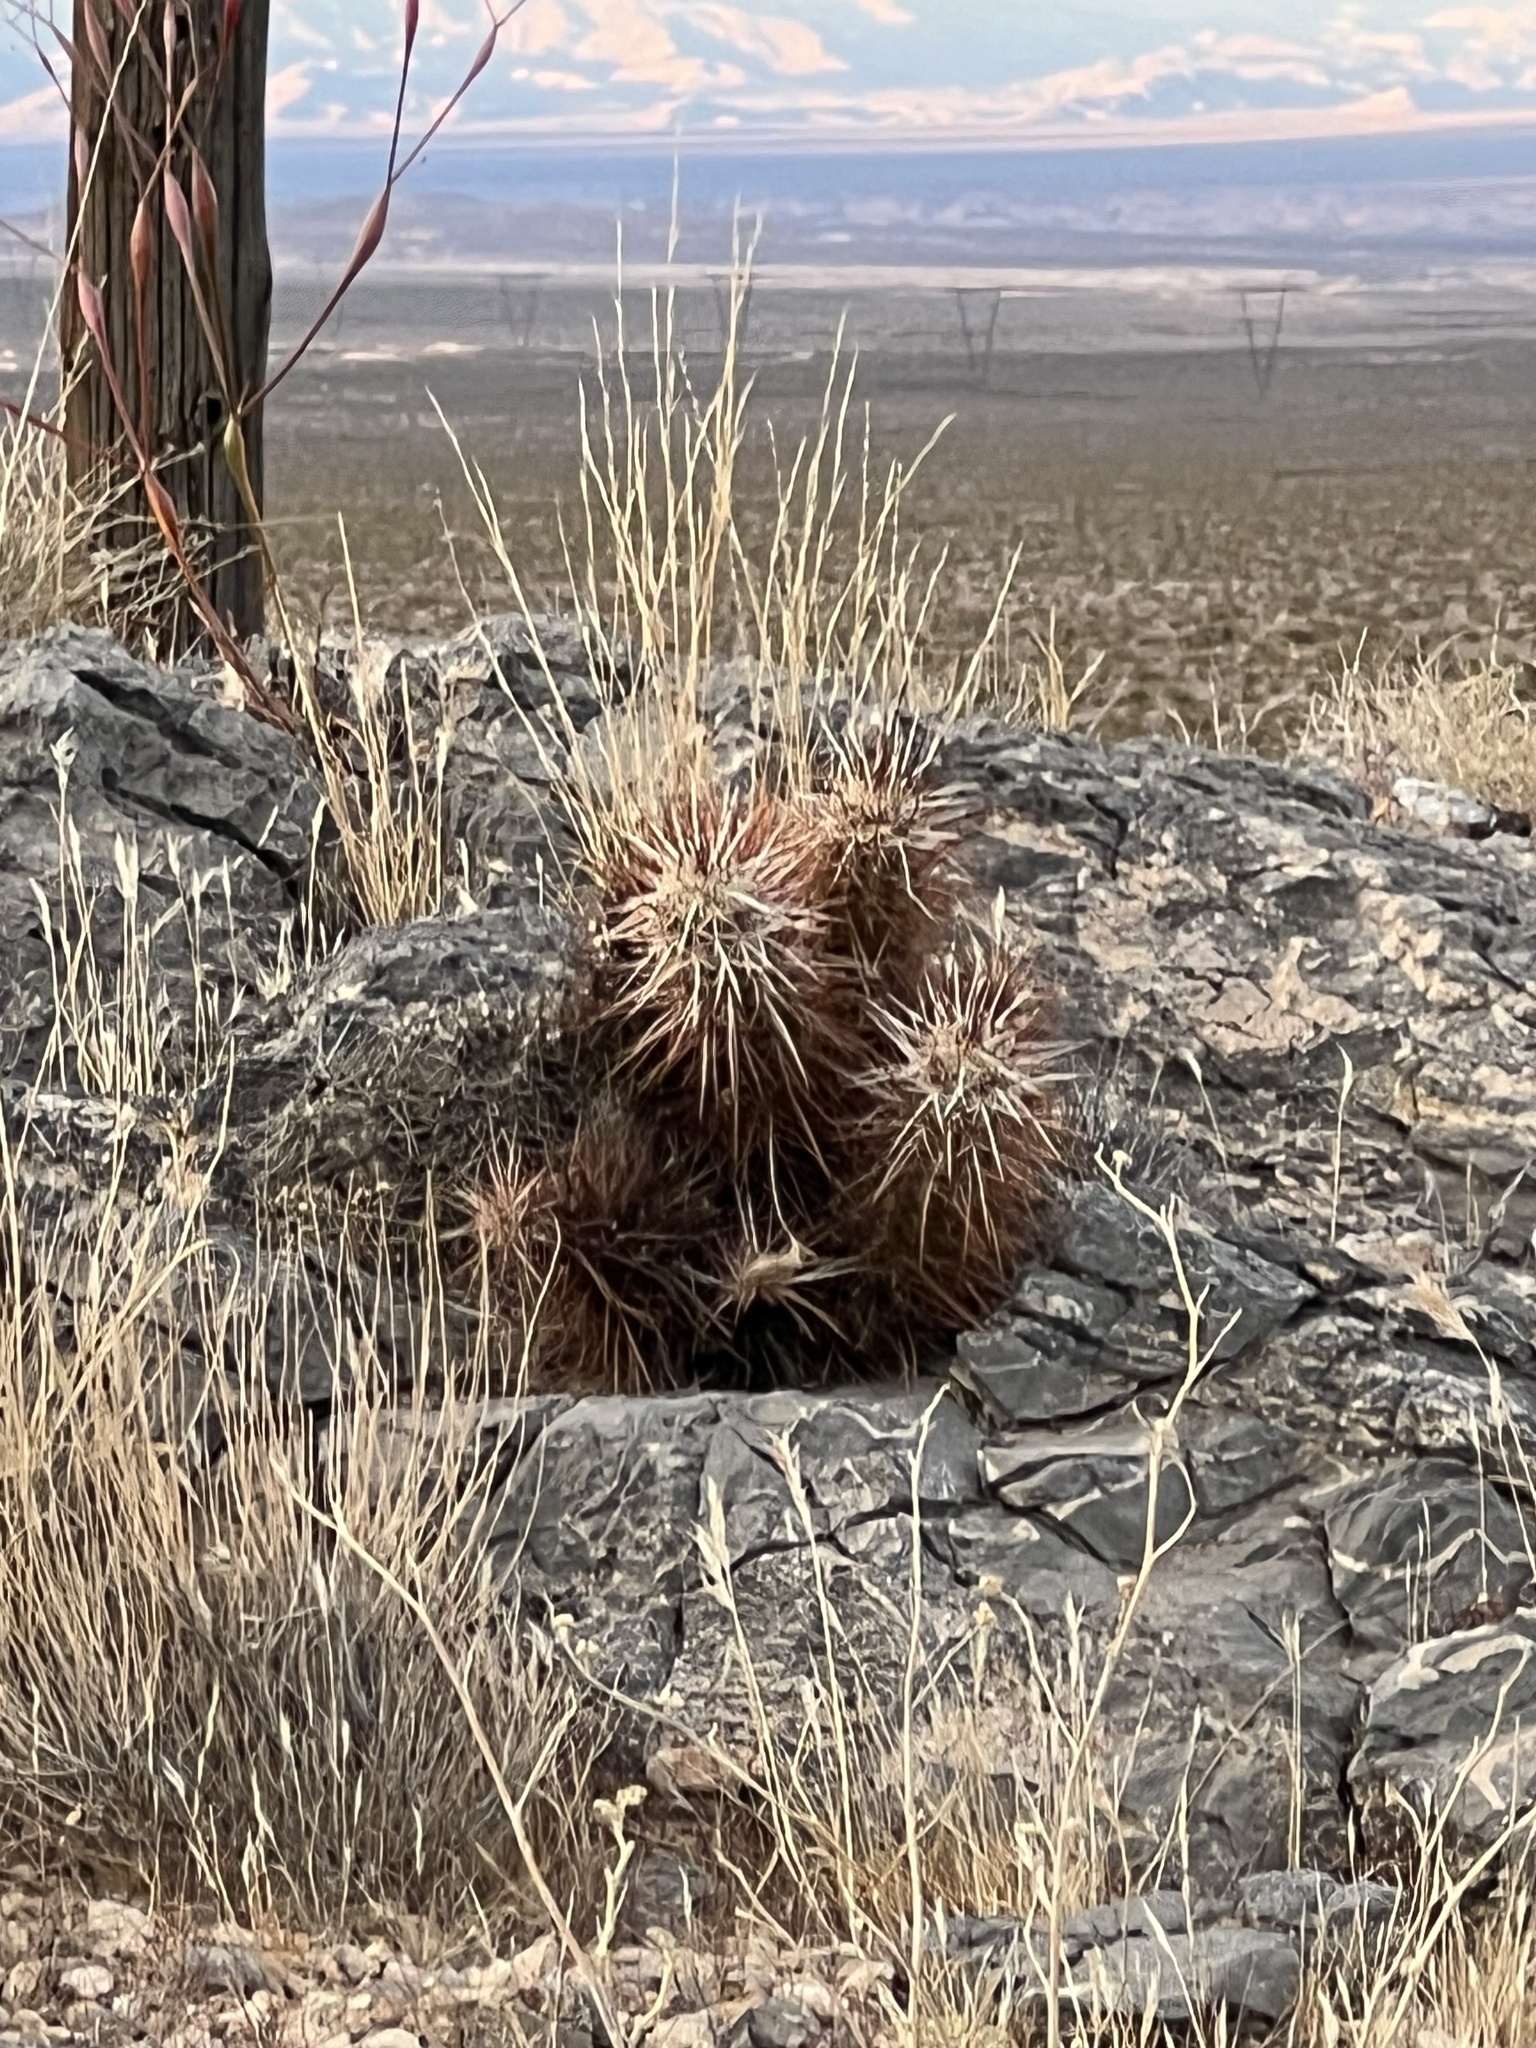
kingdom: Plantae
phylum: Tracheophyta
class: Magnoliopsida
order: Caryophyllales
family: Cactaceae
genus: Echinocereus
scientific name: Echinocereus engelmannii
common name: Engelmann's hedgehog cactus
